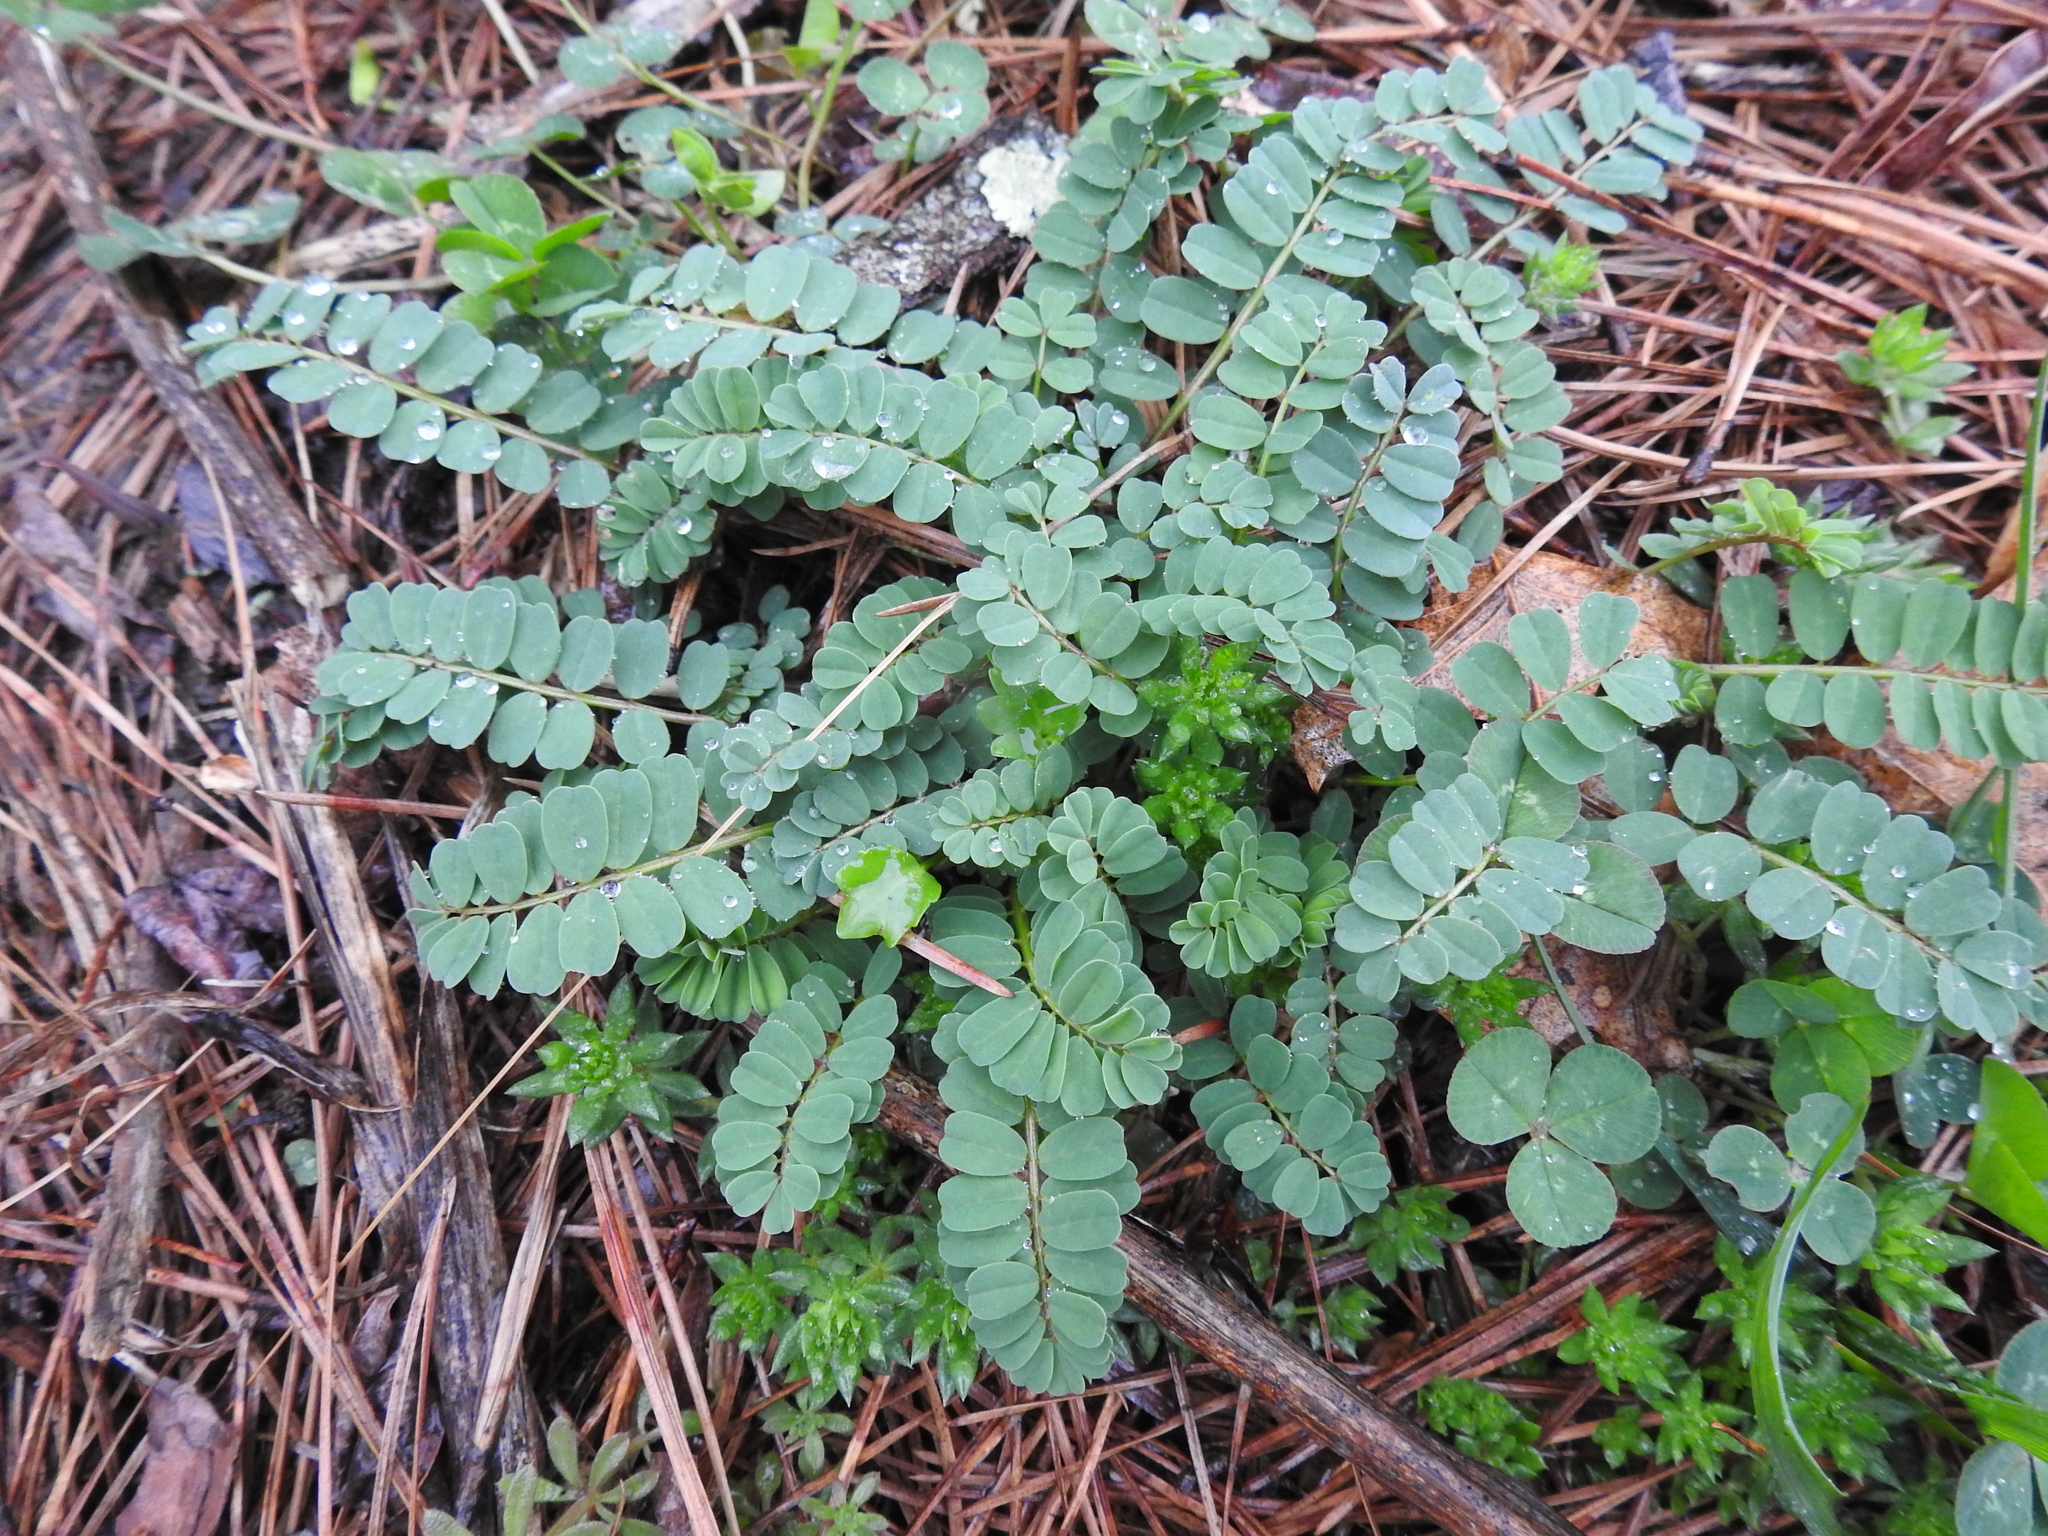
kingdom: Plantae
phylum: Tracheophyta
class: Magnoliopsida
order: Fabales
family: Fabaceae
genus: Coronilla
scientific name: Coronilla varia
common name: Crownvetch
